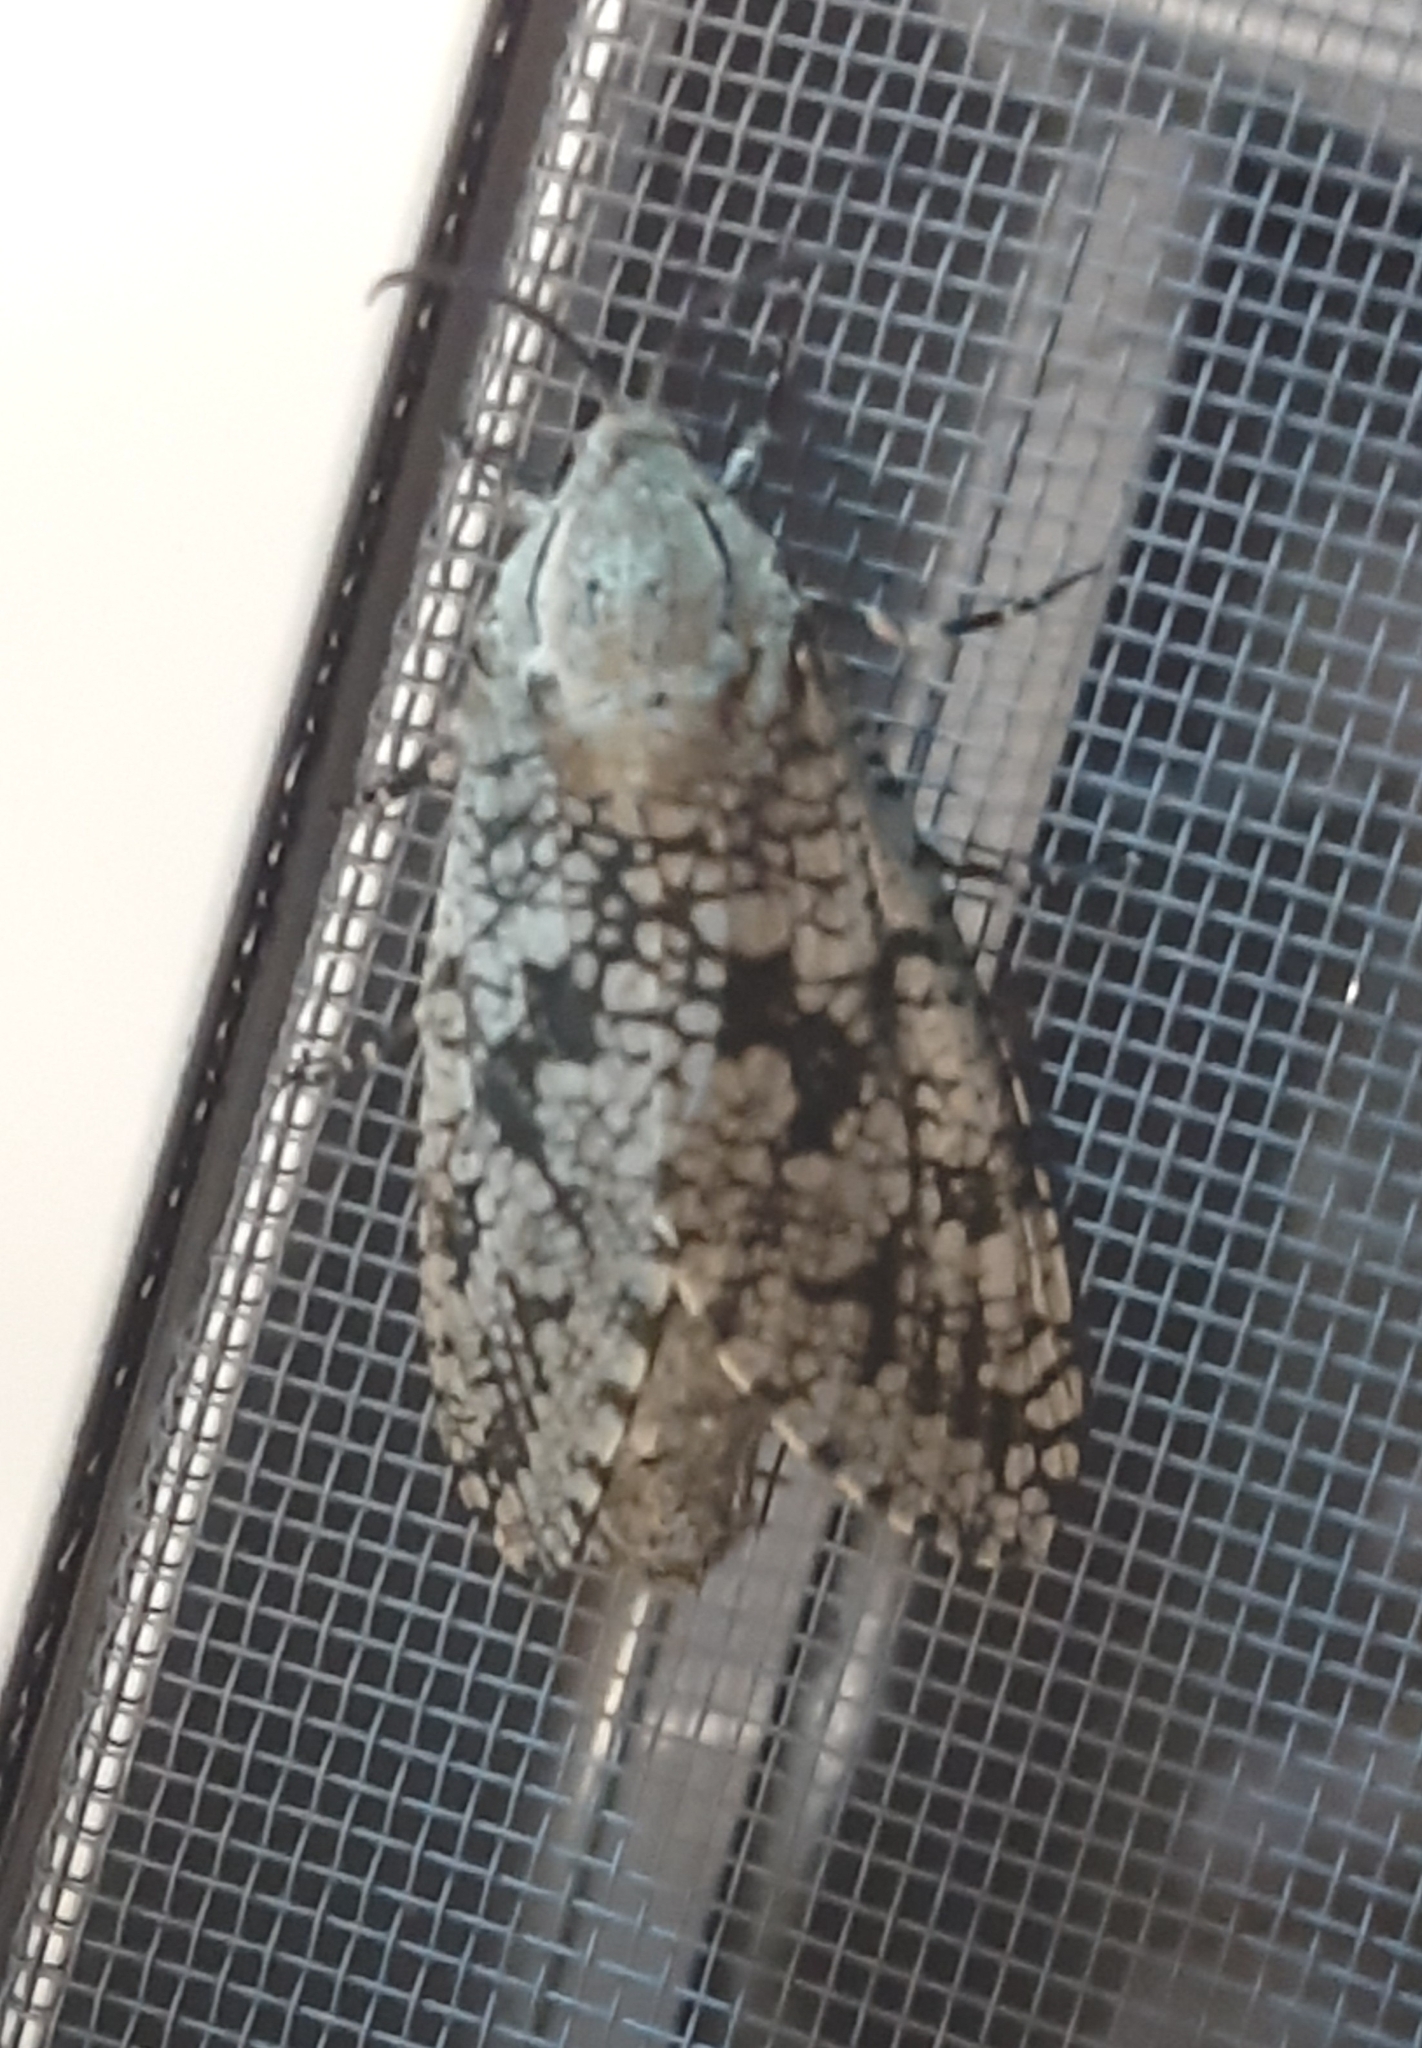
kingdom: Animalia
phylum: Arthropoda
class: Insecta
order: Lepidoptera
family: Cossidae
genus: Prionoxystus
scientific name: Prionoxystus robiniae
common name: Carpenterworm
